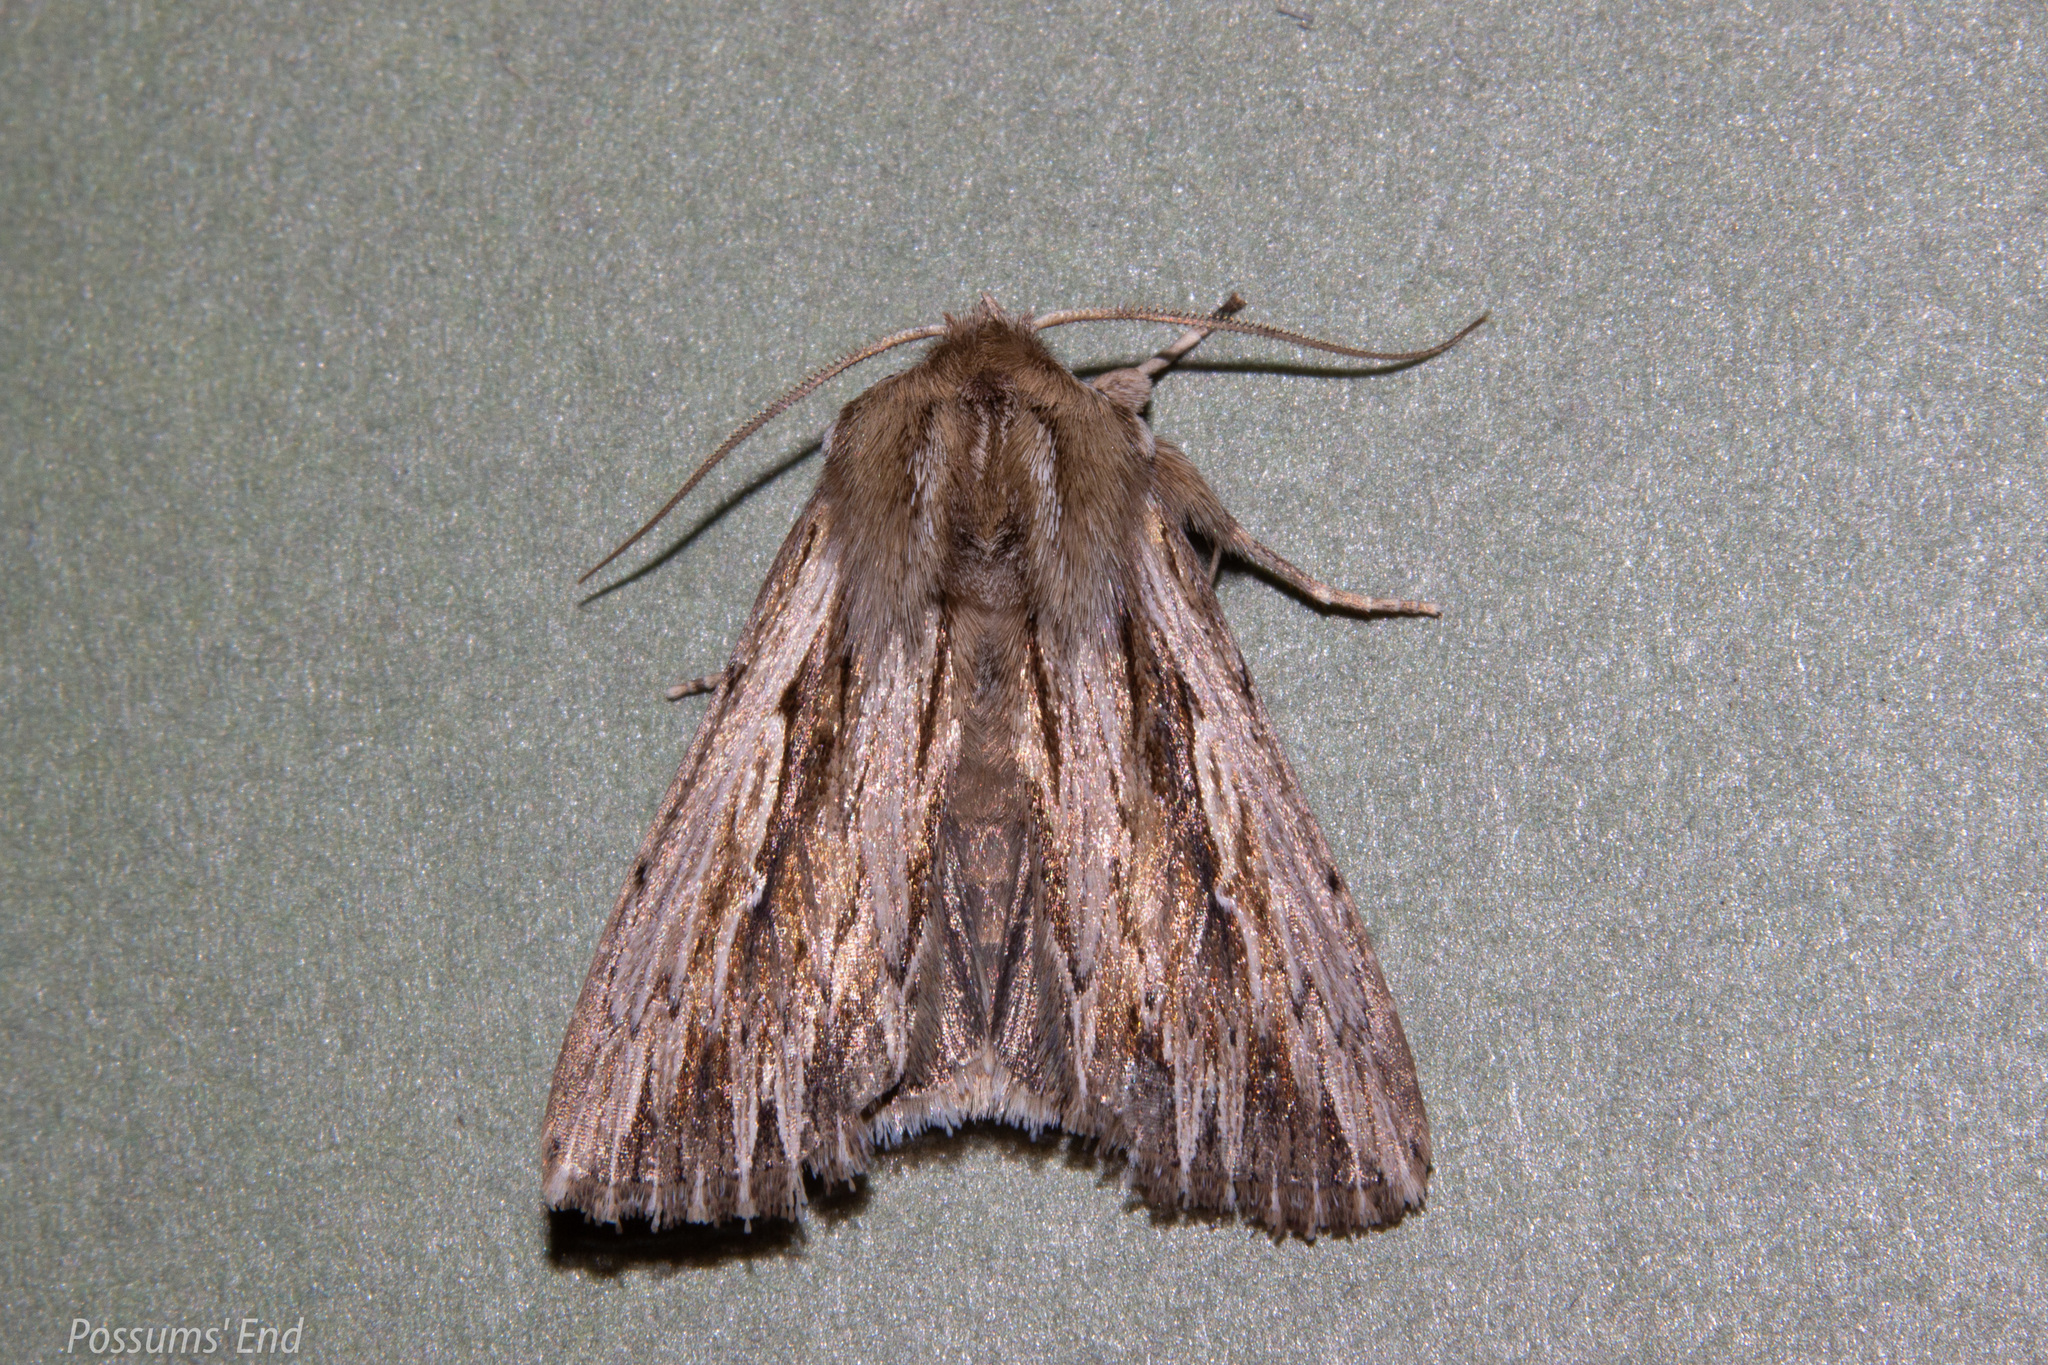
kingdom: Animalia
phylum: Arthropoda
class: Insecta
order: Lepidoptera
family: Noctuidae
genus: Persectania
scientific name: Persectania aversa
